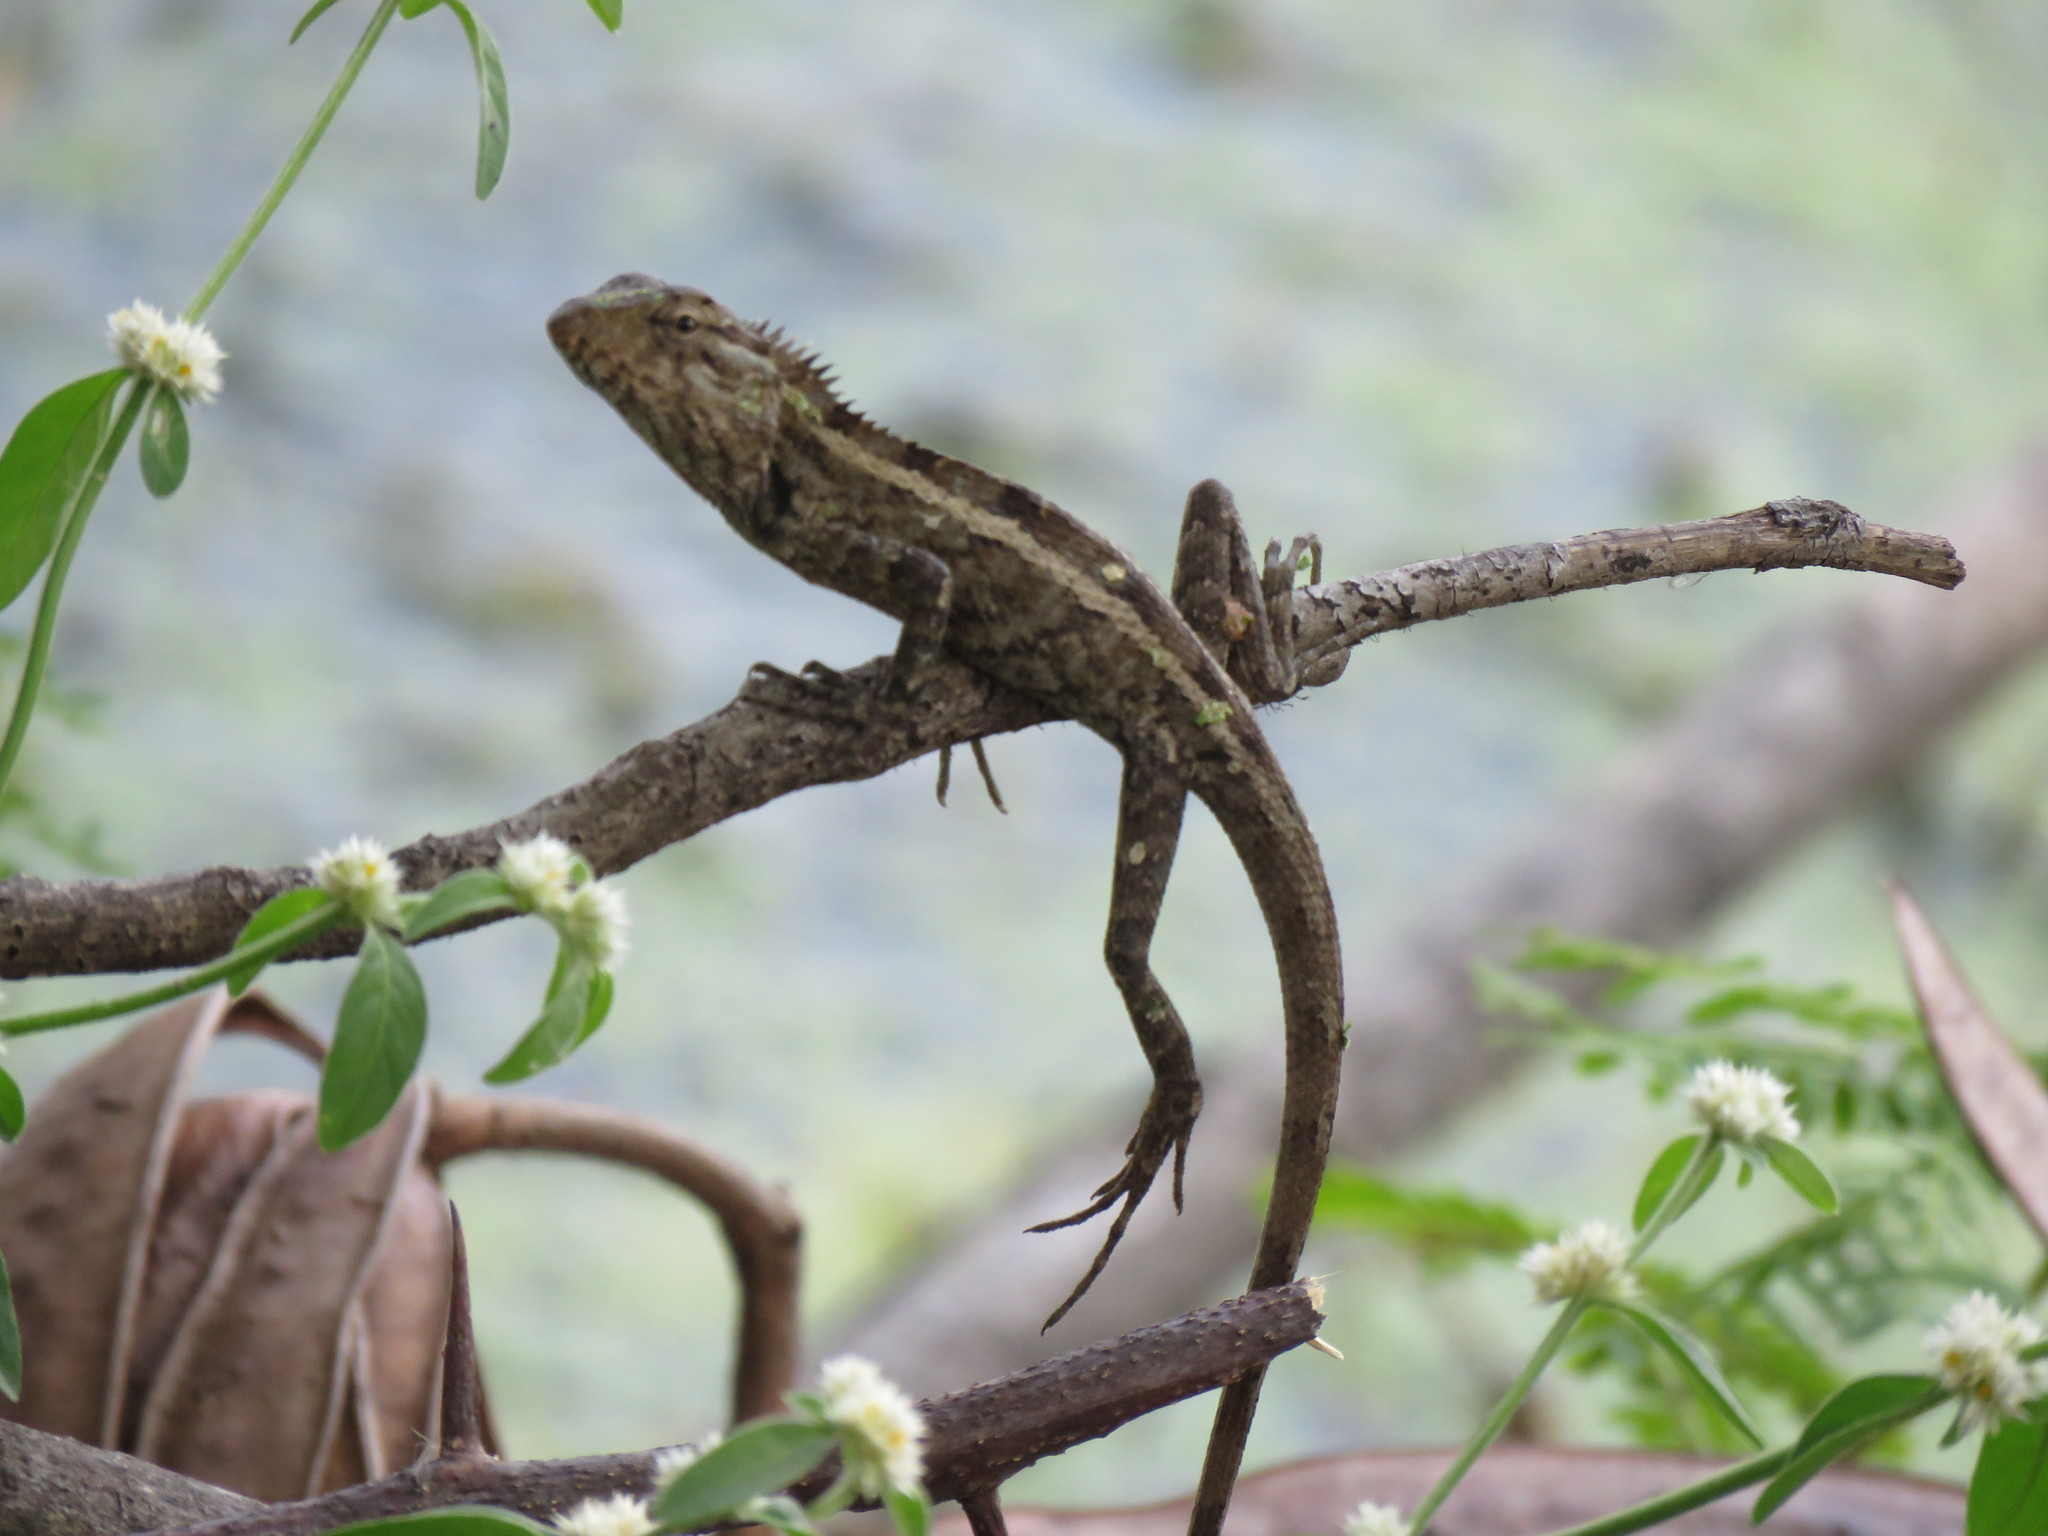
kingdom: Animalia
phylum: Chordata
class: Squamata
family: Agamidae
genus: Calotes
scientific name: Calotes versicolor
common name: Oriental garden lizard
